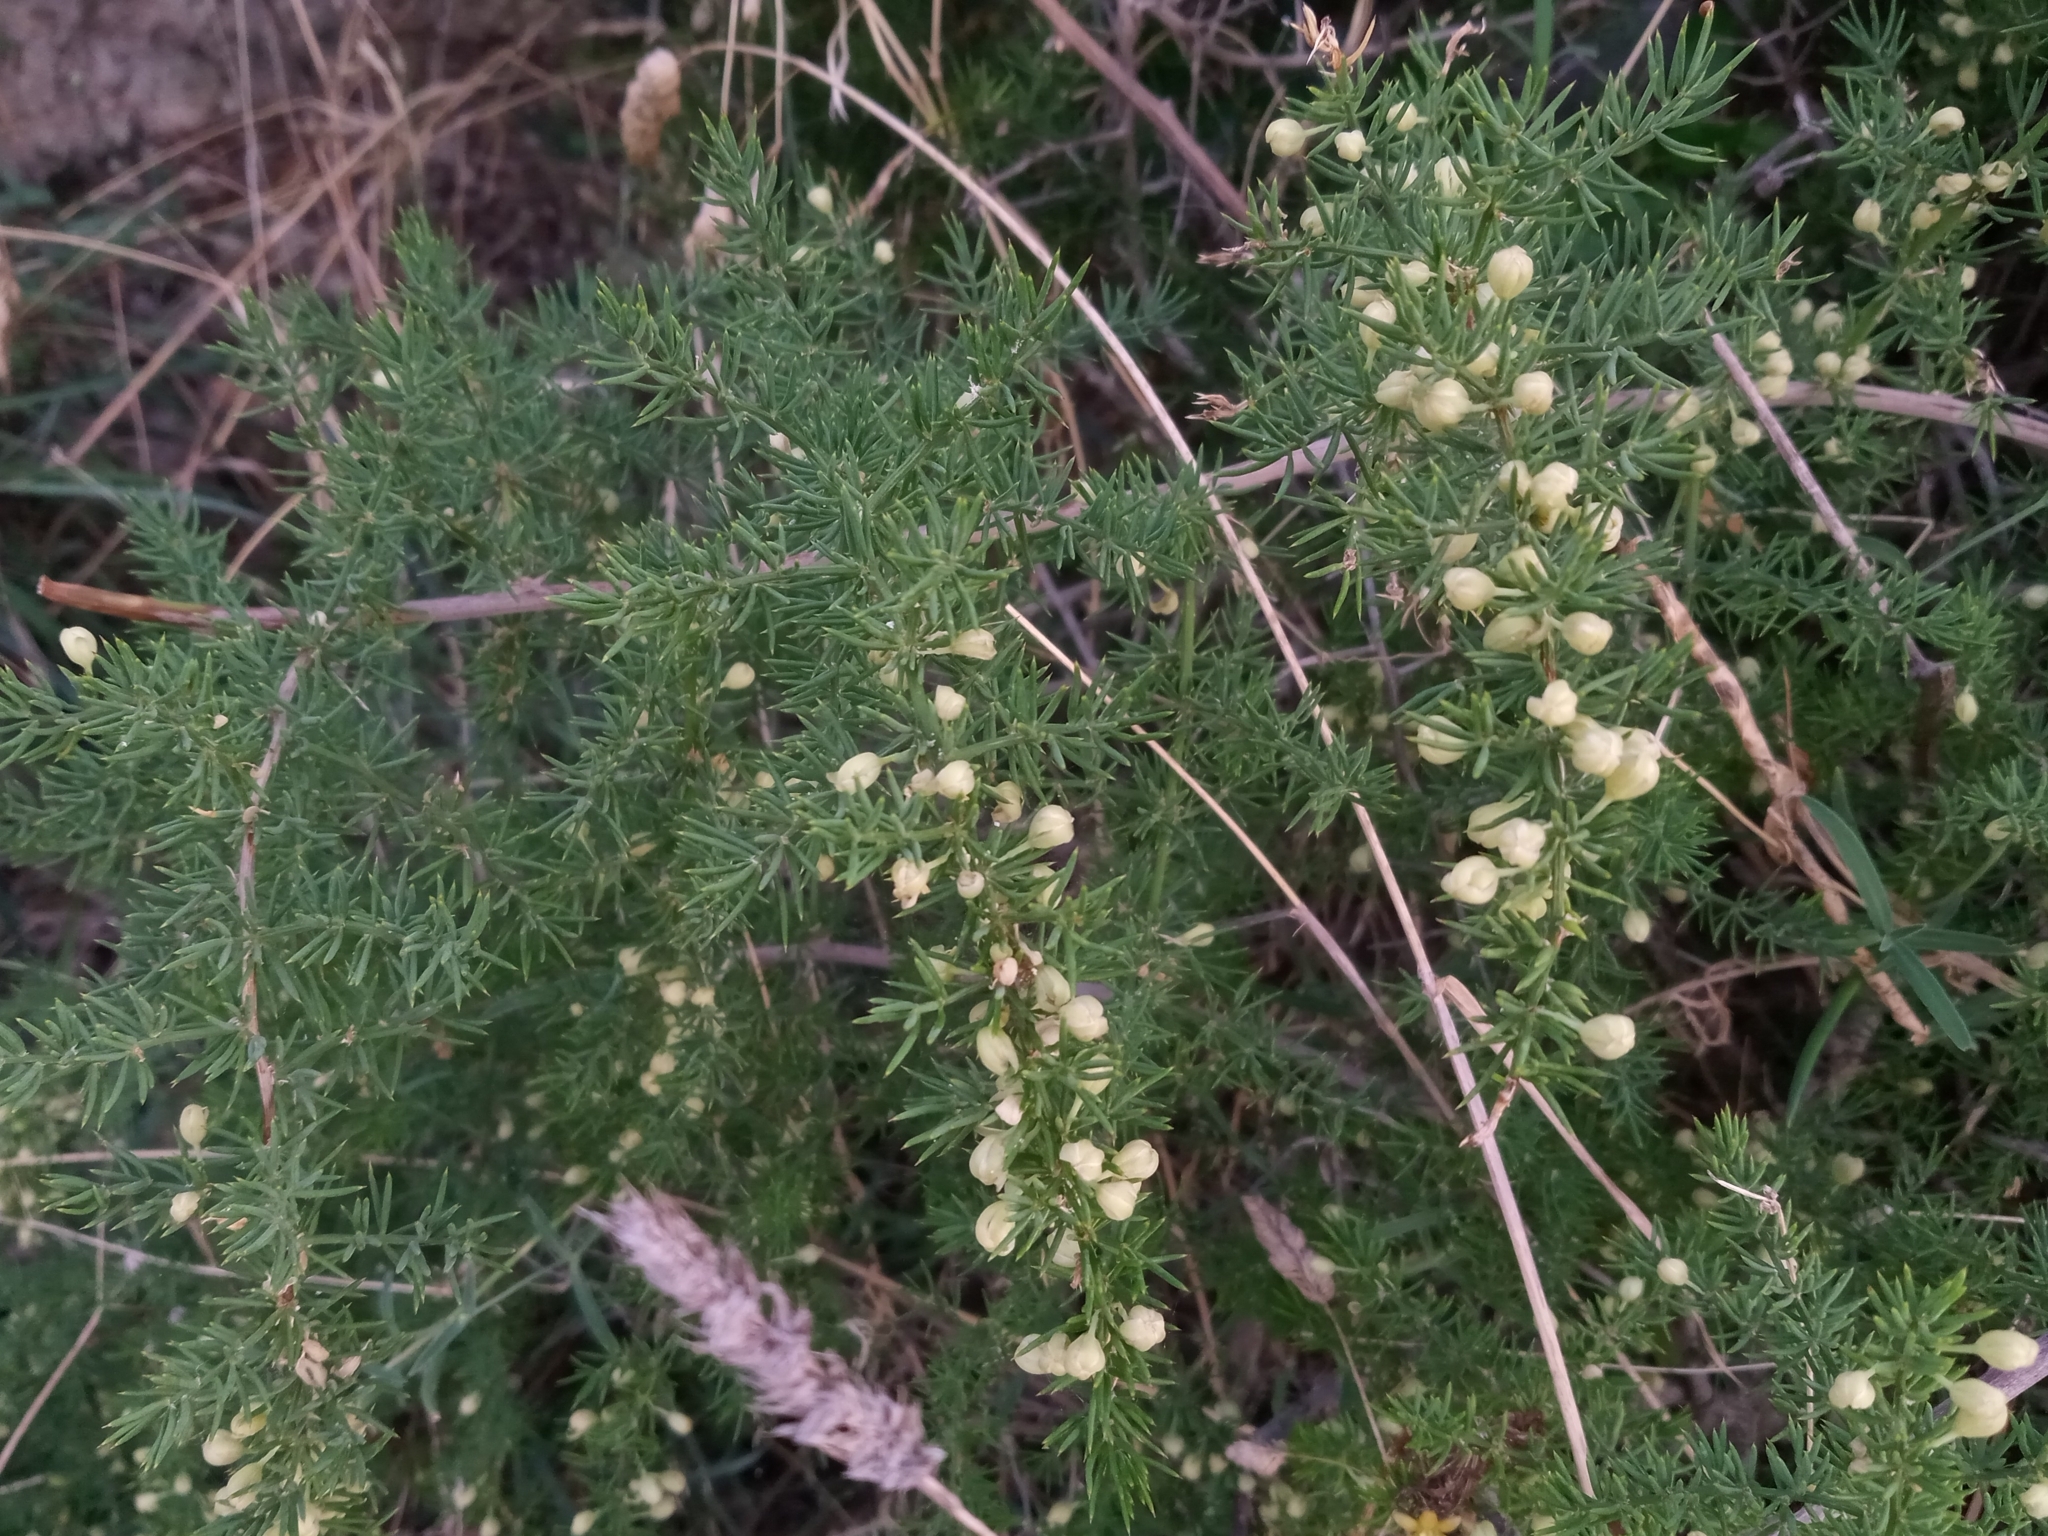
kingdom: Plantae
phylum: Tracheophyta
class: Liliopsida
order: Asparagales
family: Asparagaceae
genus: Asparagus
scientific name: Asparagus acutifolius
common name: Wild asparagus
